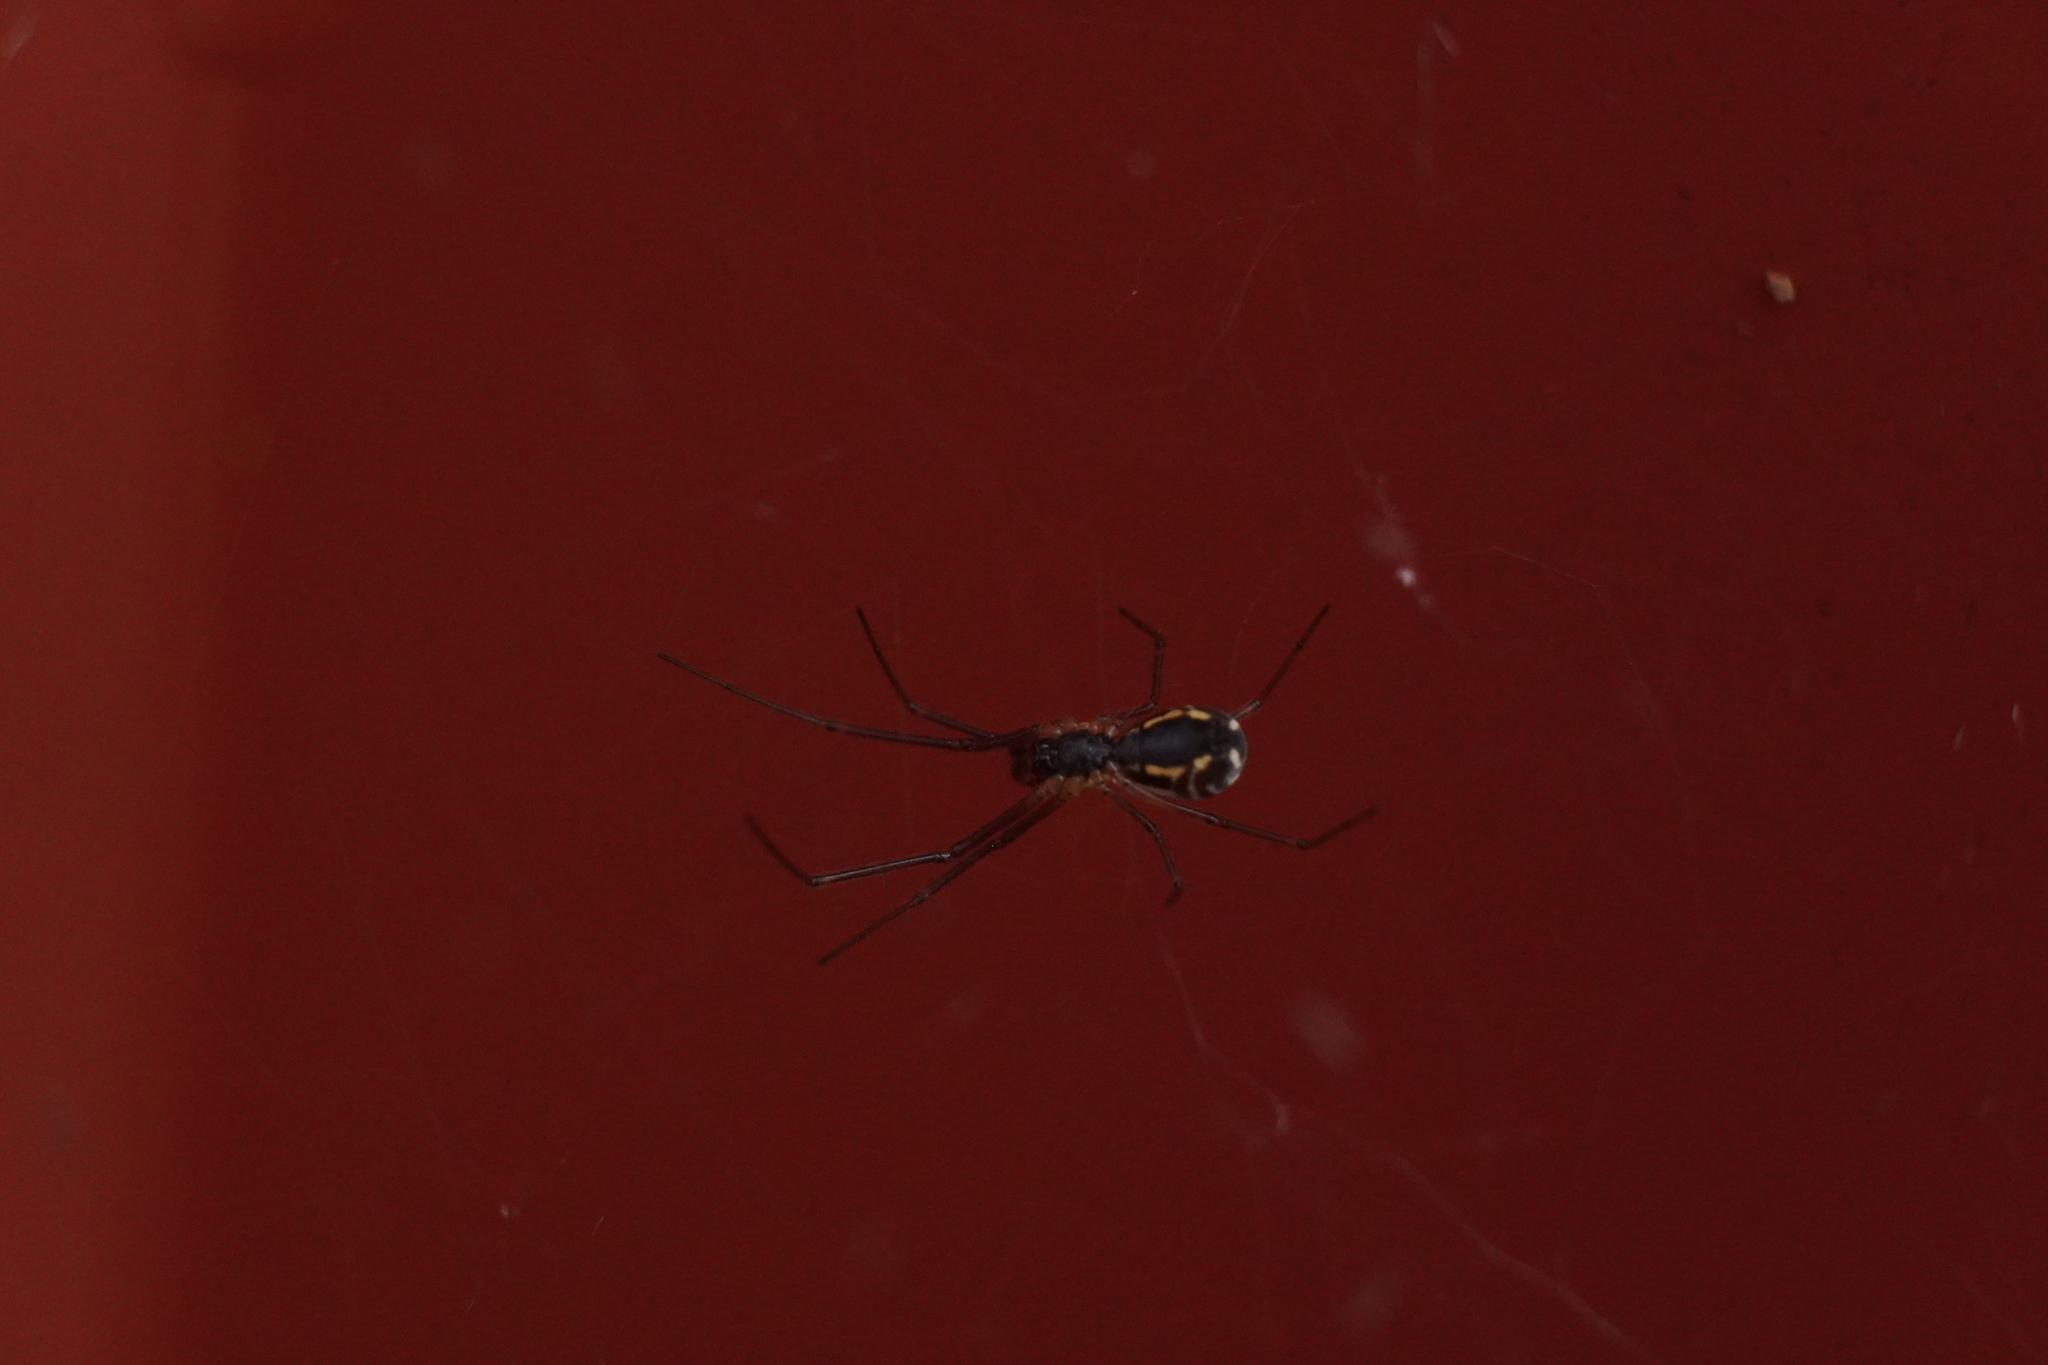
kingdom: Animalia
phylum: Arthropoda
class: Arachnida
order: Araneae
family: Linyphiidae
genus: Neriene
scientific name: Neriene radiata
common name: Filmy dome spider
